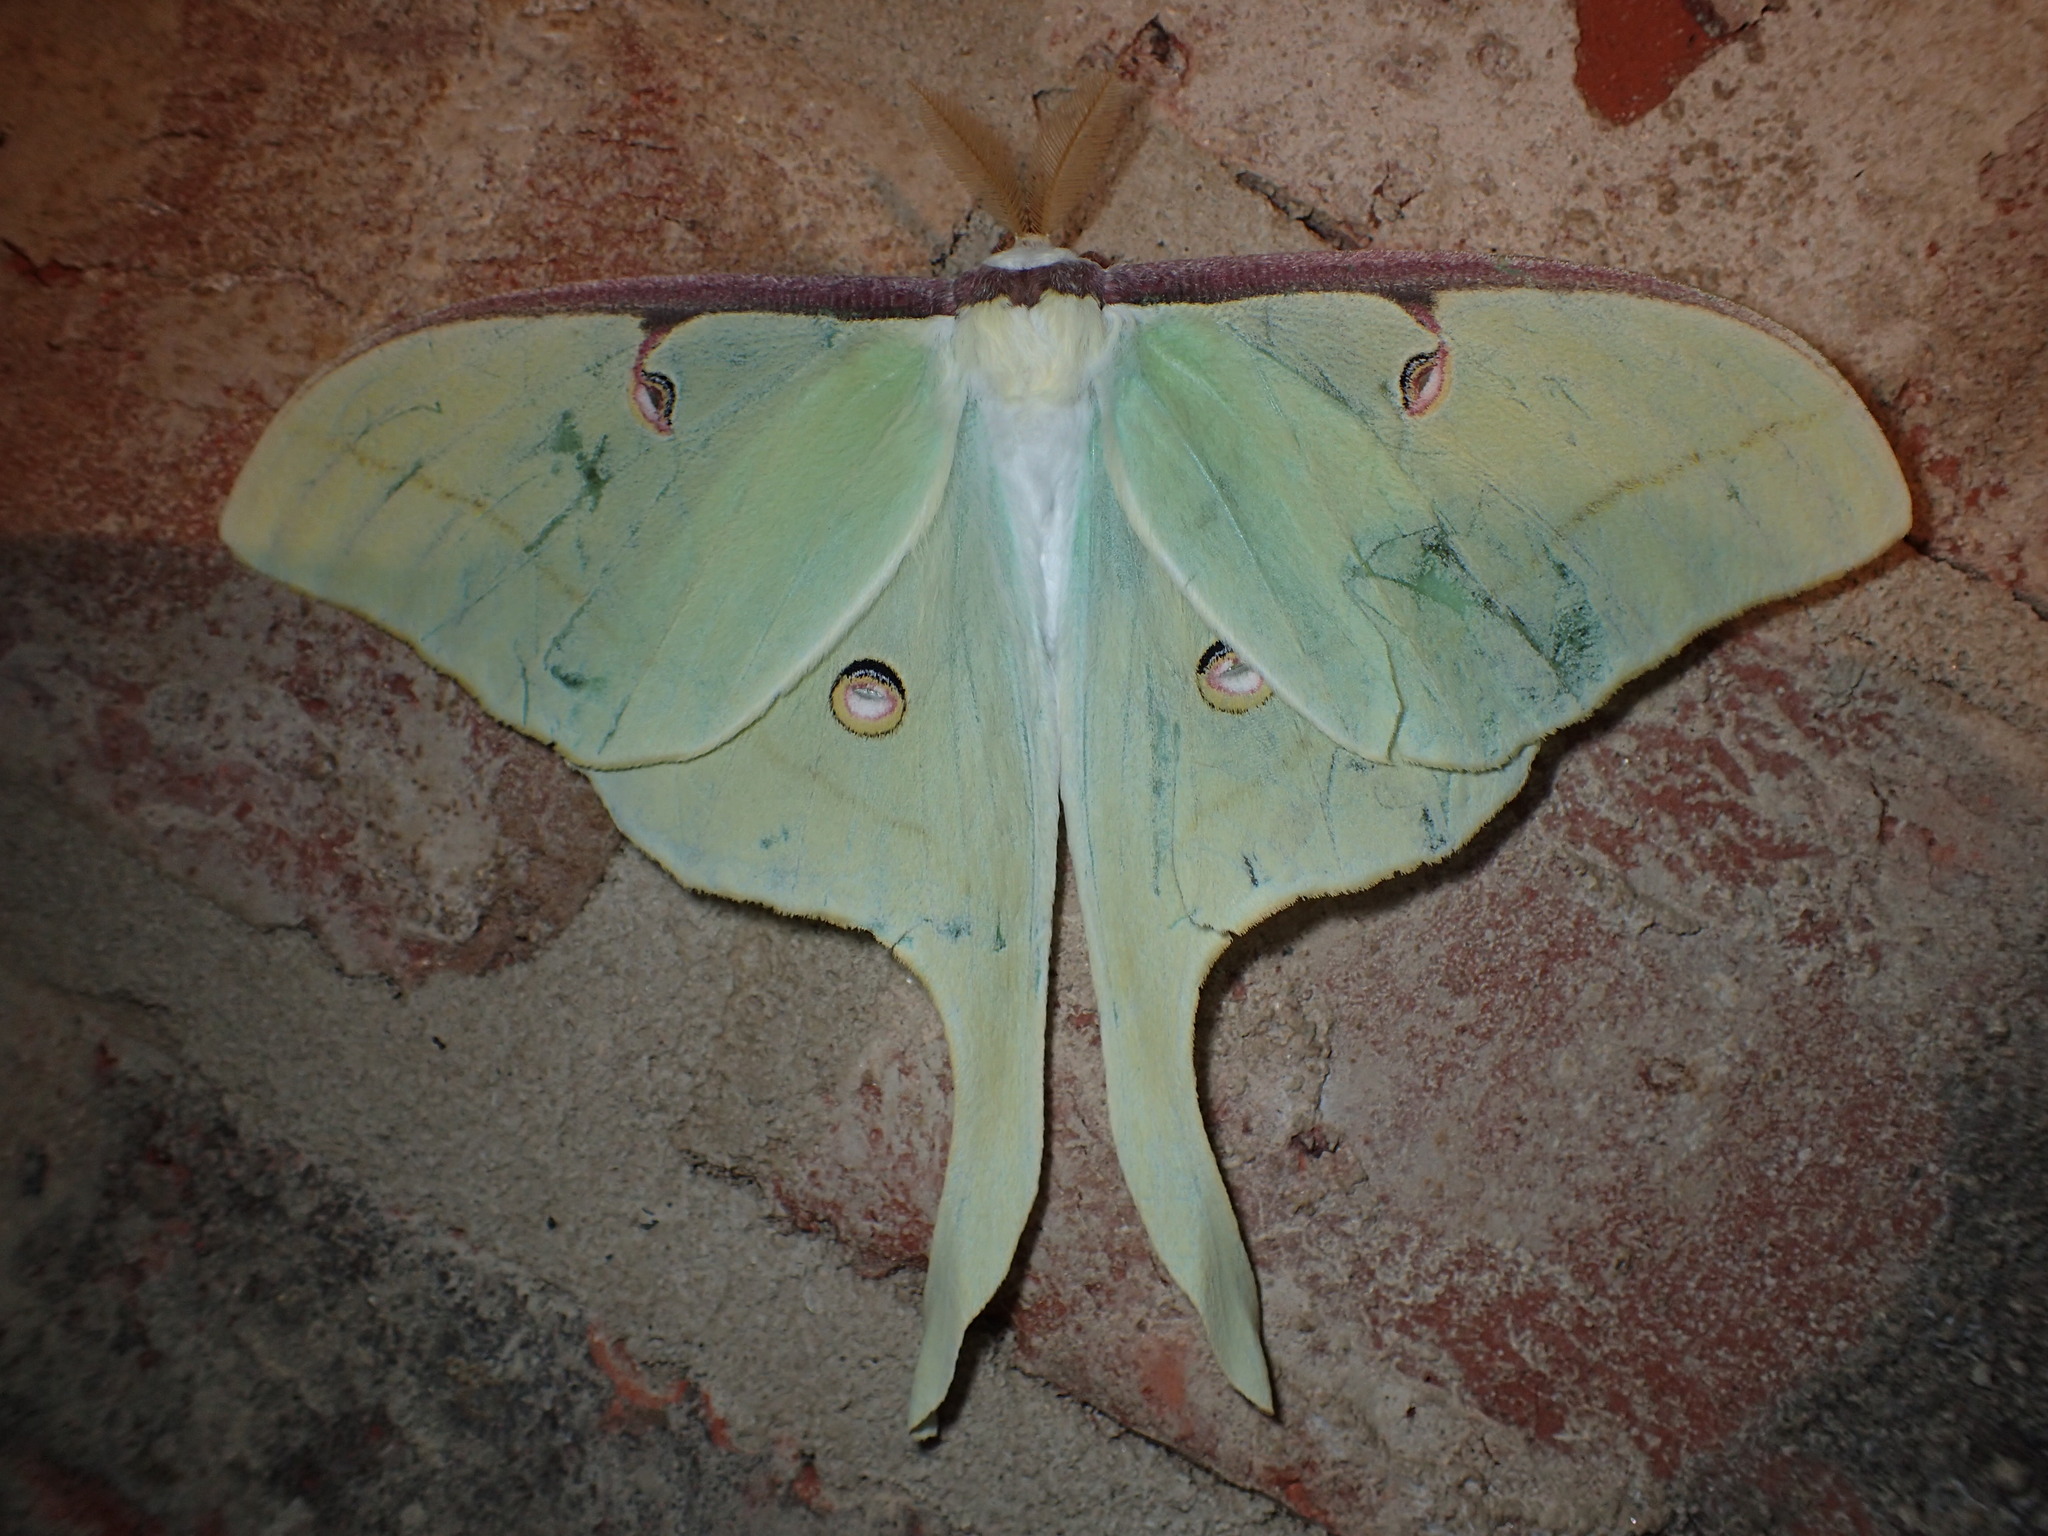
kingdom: Animalia
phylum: Arthropoda
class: Insecta
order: Lepidoptera
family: Saturniidae
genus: Actias
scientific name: Actias luna
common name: Luna moth
